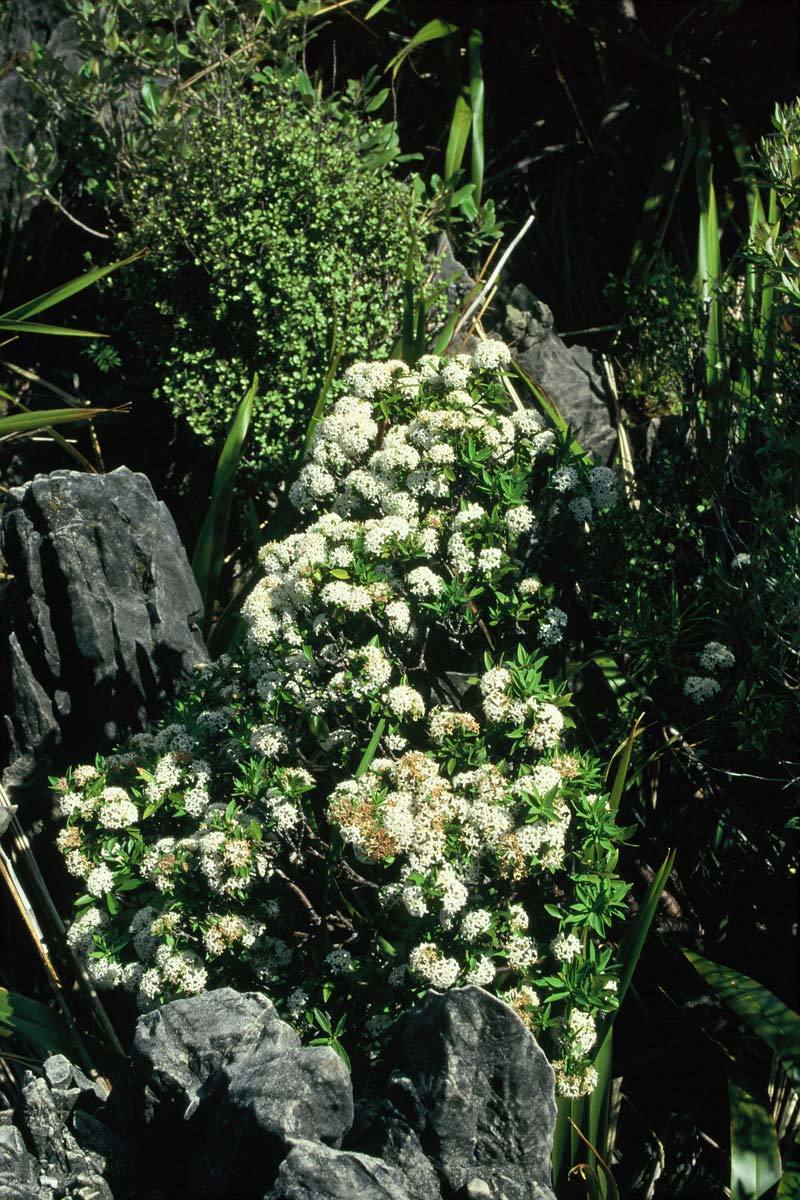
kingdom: Plantae
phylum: Tracheophyta
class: Magnoliopsida
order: Malvales
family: Thymelaeaceae
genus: Pimelea
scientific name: Pimelea longifolia
